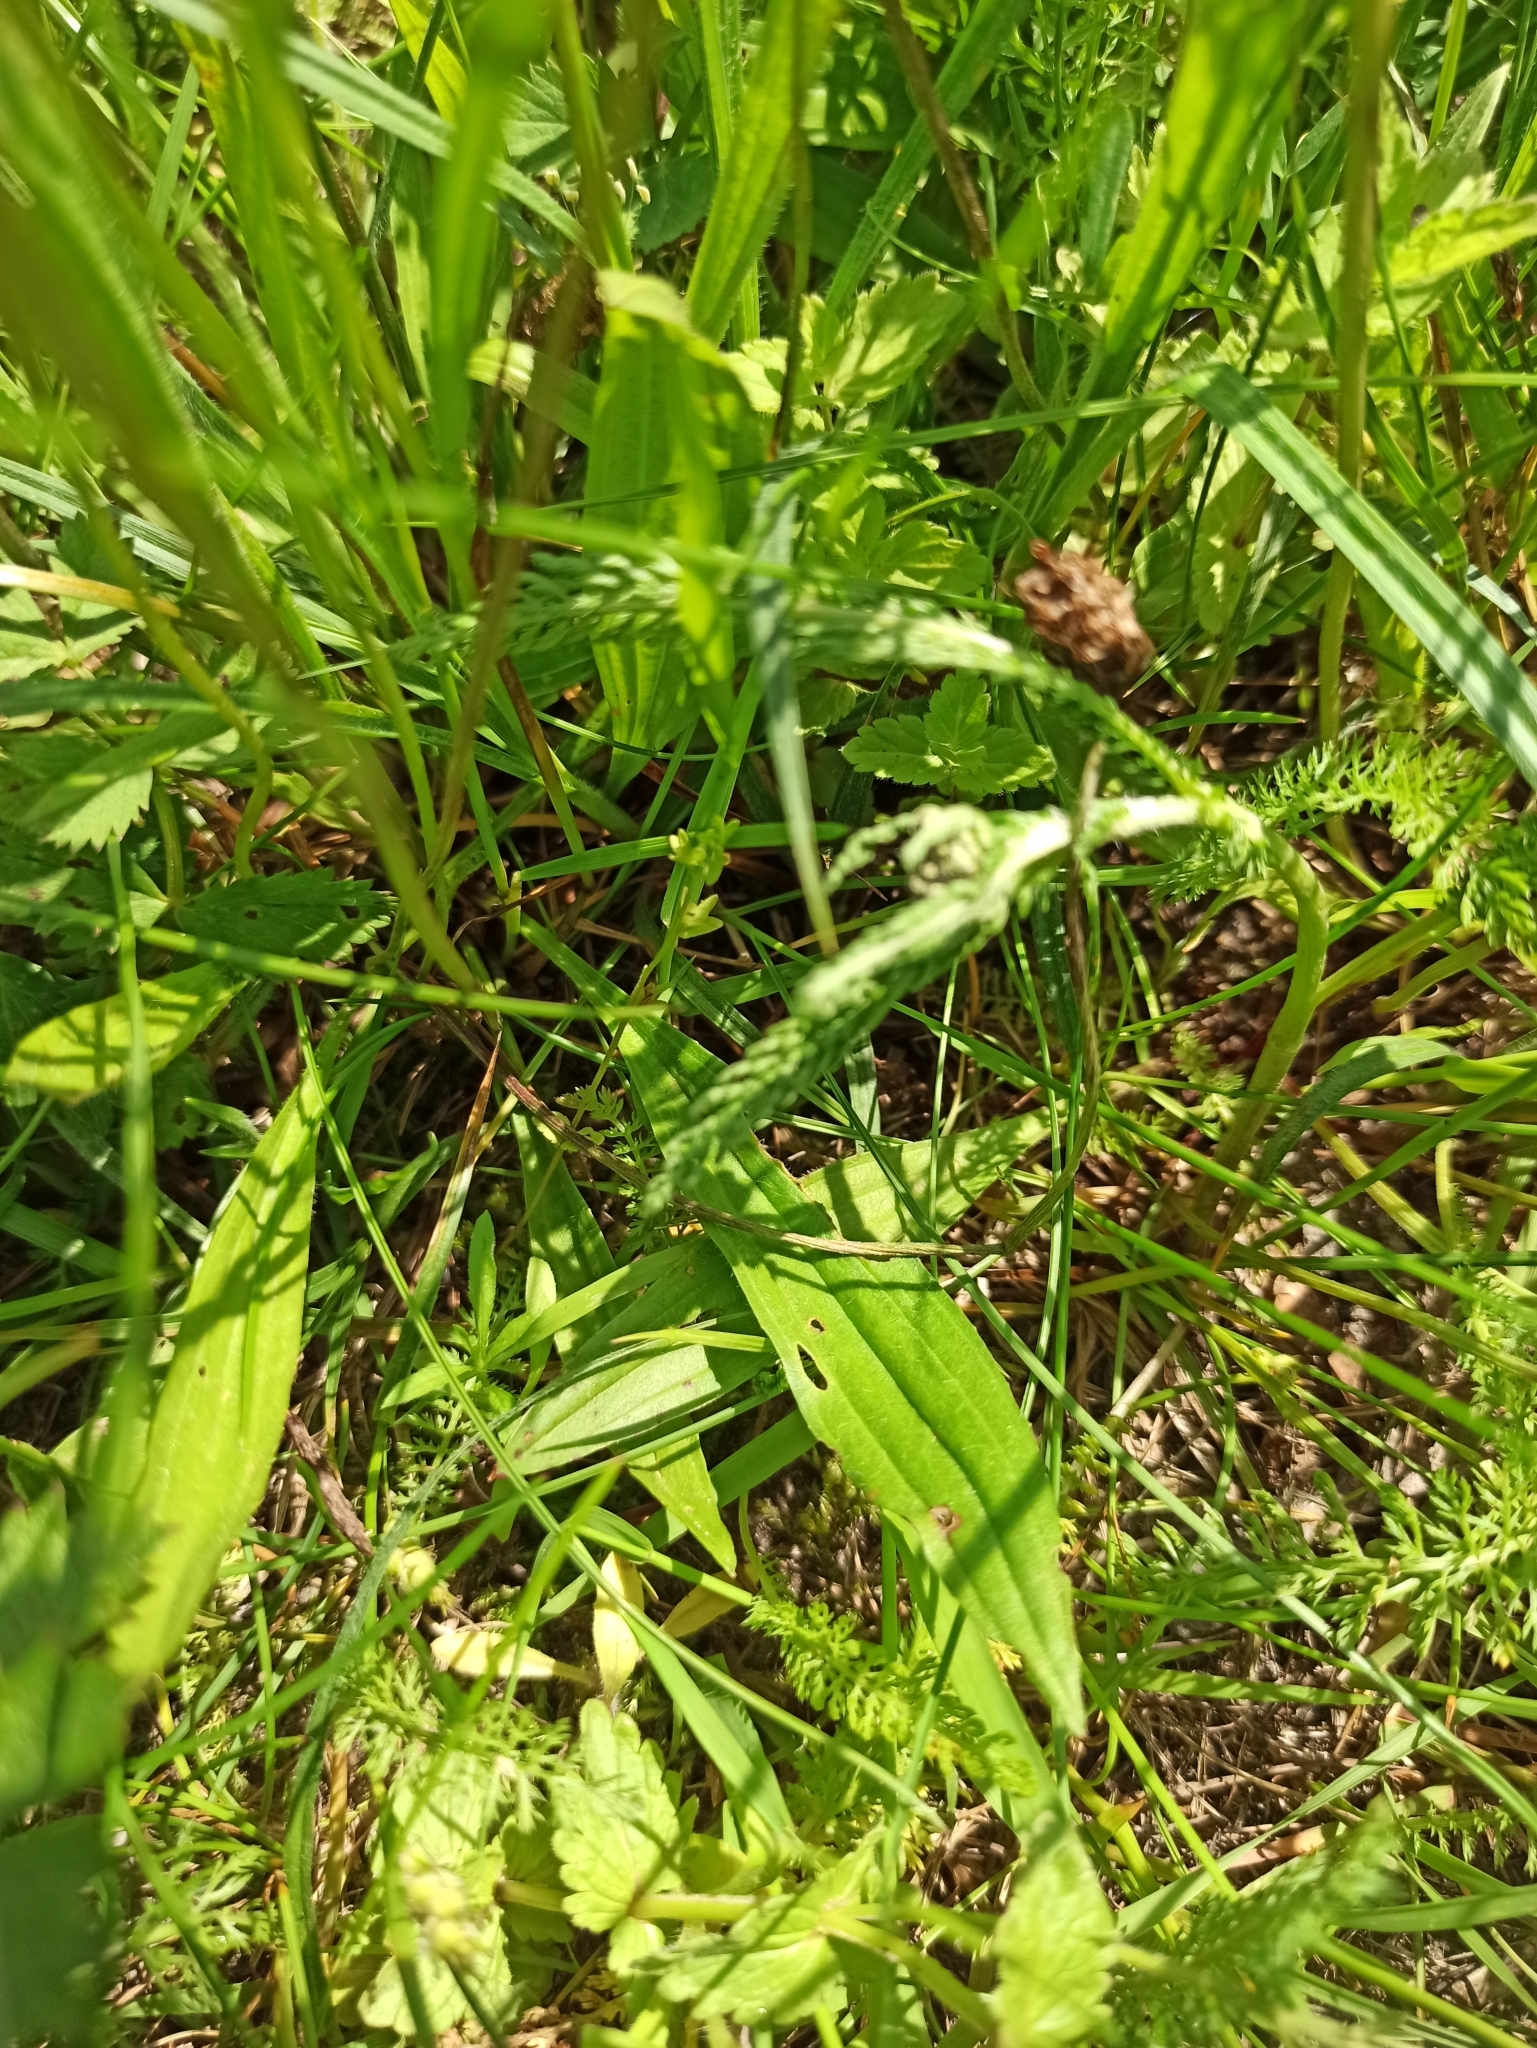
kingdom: Plantae
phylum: Tracheophyta
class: Magnoliopsida
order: Lamiales
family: Plantaginaceae
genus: Plantago
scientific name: Plantago lanceolata
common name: Ribwort plantain
